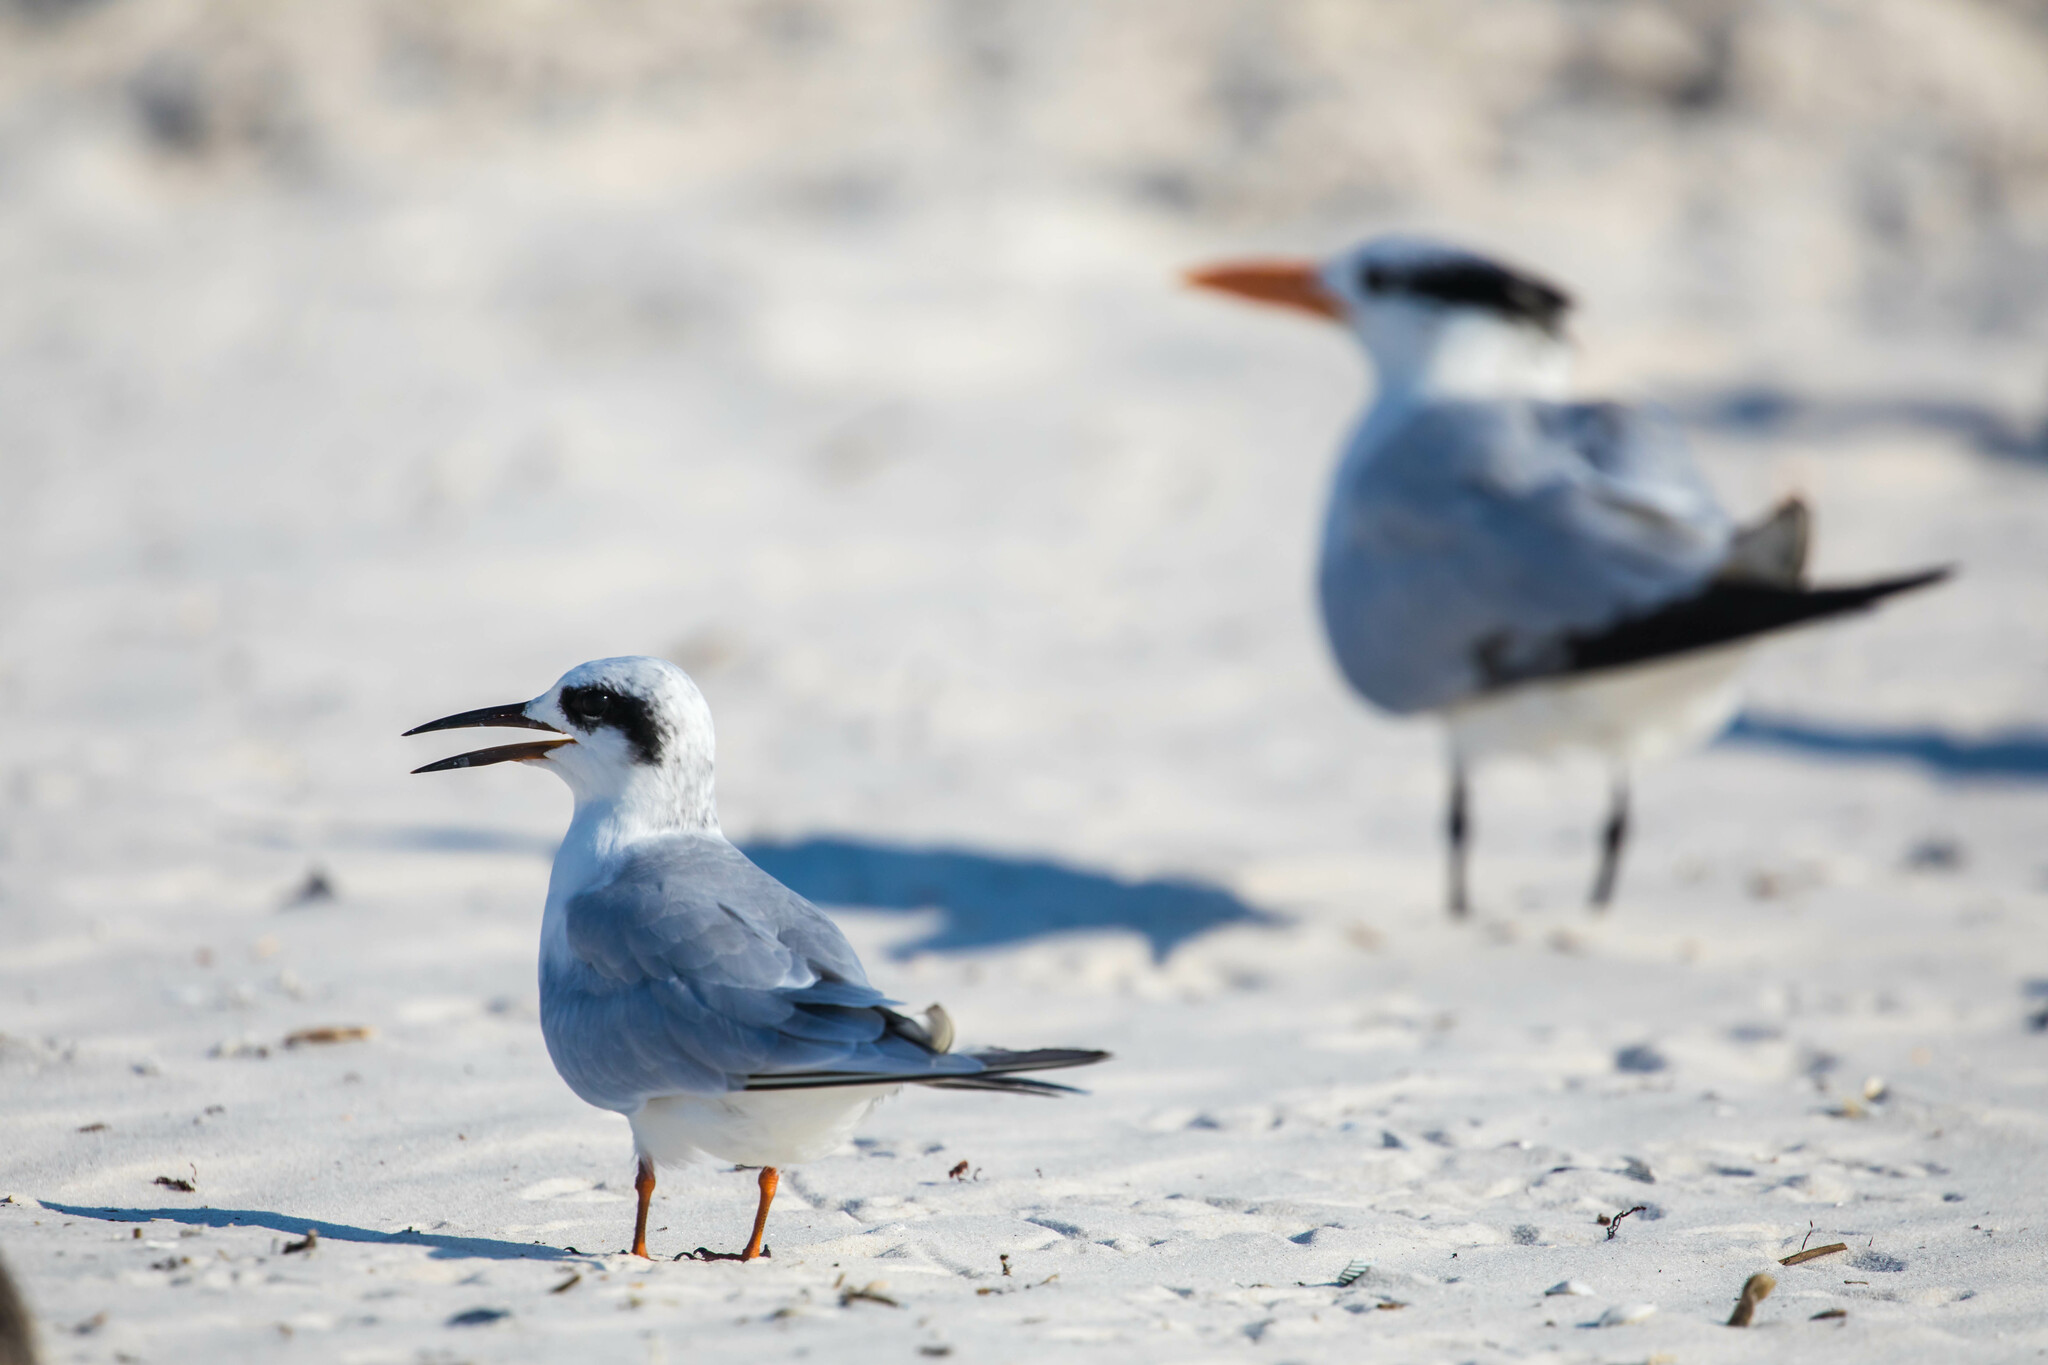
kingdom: Animalia
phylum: Chordata
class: Aves
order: Charadriiformes
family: Laridae
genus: Sterna
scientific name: Sterna forsteri
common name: Forster's tern
